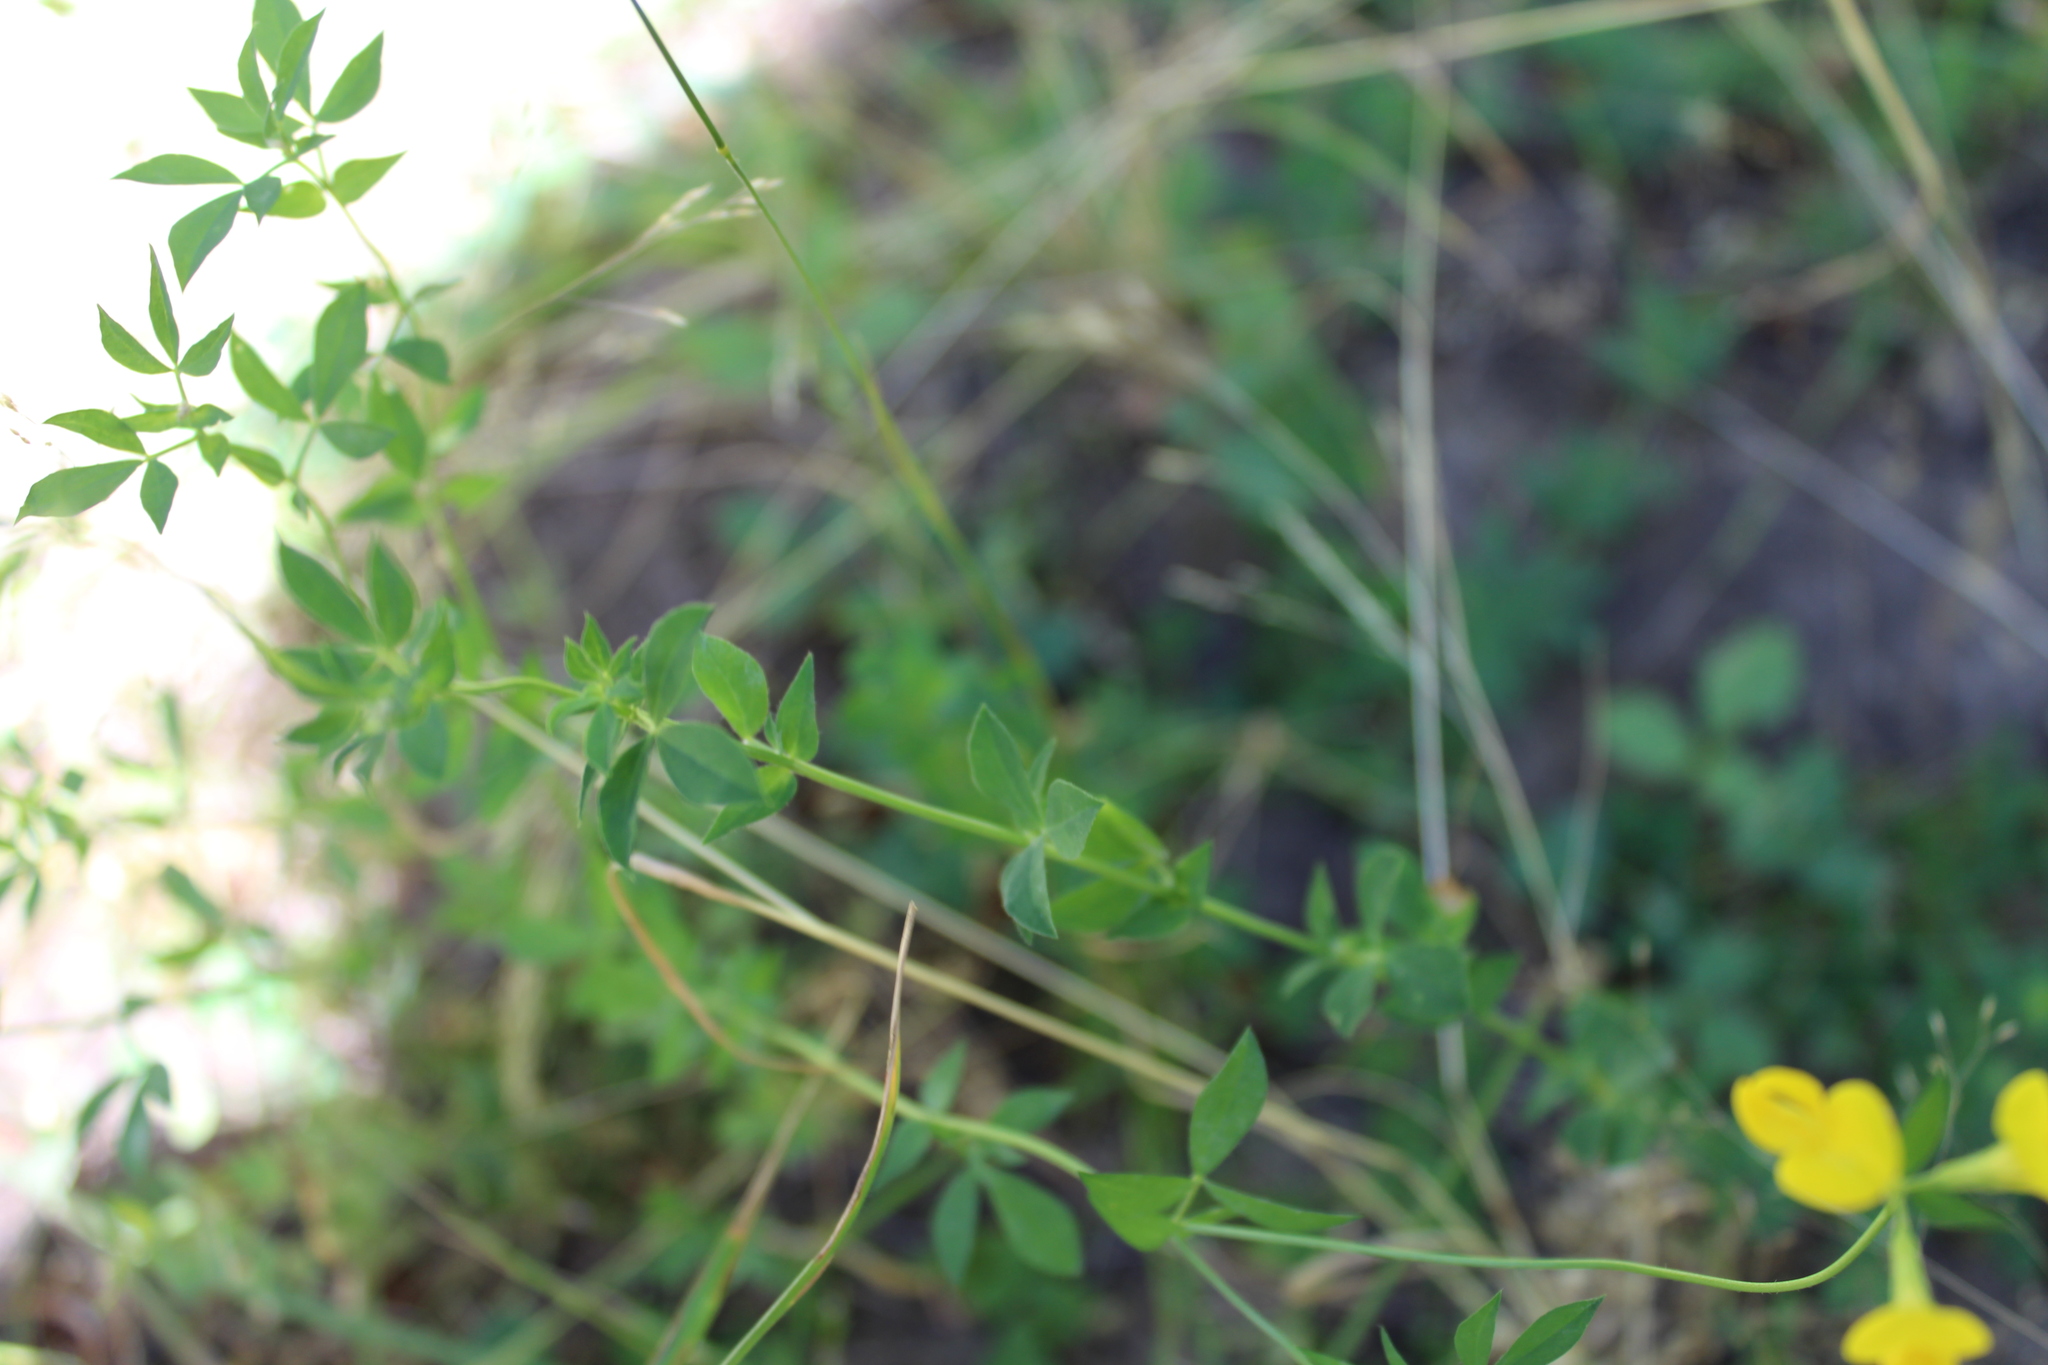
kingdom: Plantae
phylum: Tracheophyta
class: Magnoliopsida
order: Fabales
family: Fabaceae
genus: Lotus
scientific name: Lotus corniculatus
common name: Common bird's-foot-trefoil
